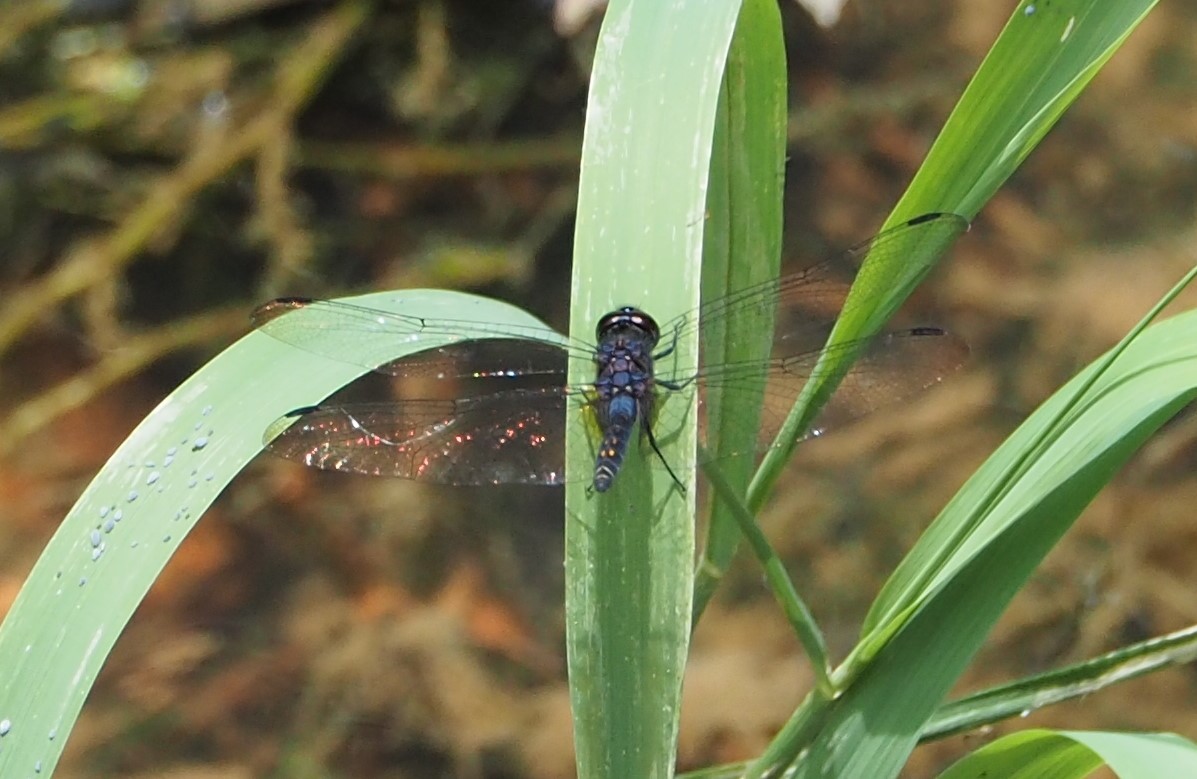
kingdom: Animalia
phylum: Arthropoda
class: Insecta
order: Odonata
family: Libellulidae
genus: Trithemis
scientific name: Trithemis festiva
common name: Indigo dropwing
